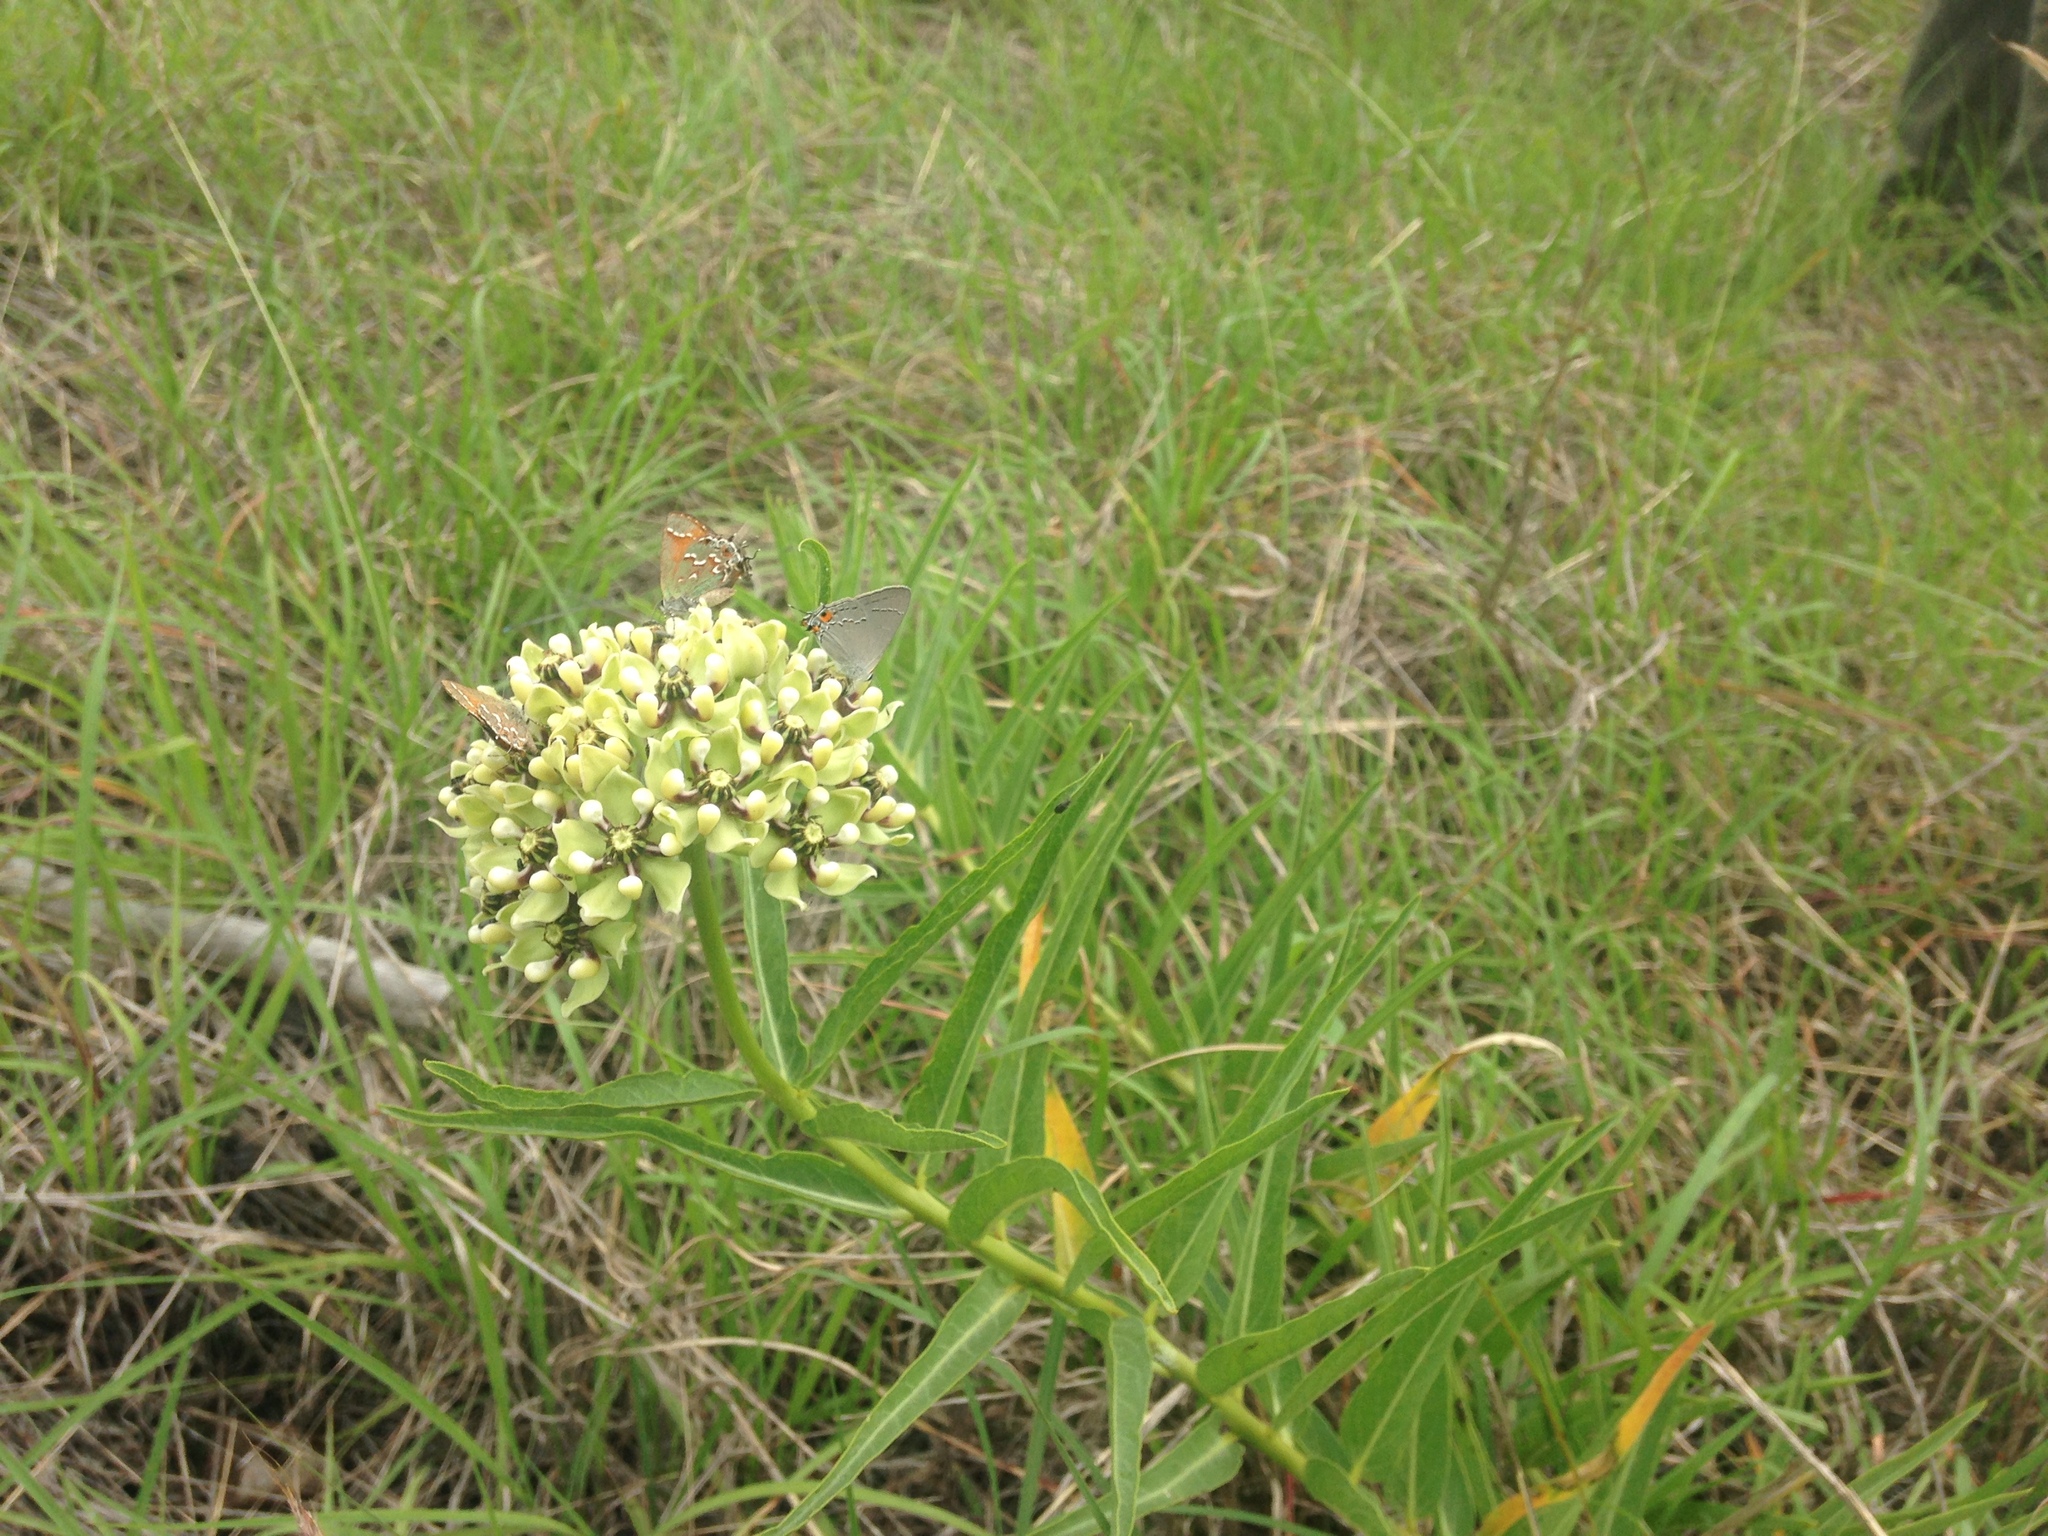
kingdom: Plantae
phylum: Tracheophyta
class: Magnoliopsida
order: Gentianales
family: Apocynaceae
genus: Asclepias
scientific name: Asclepias asperula
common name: Antelope horns
